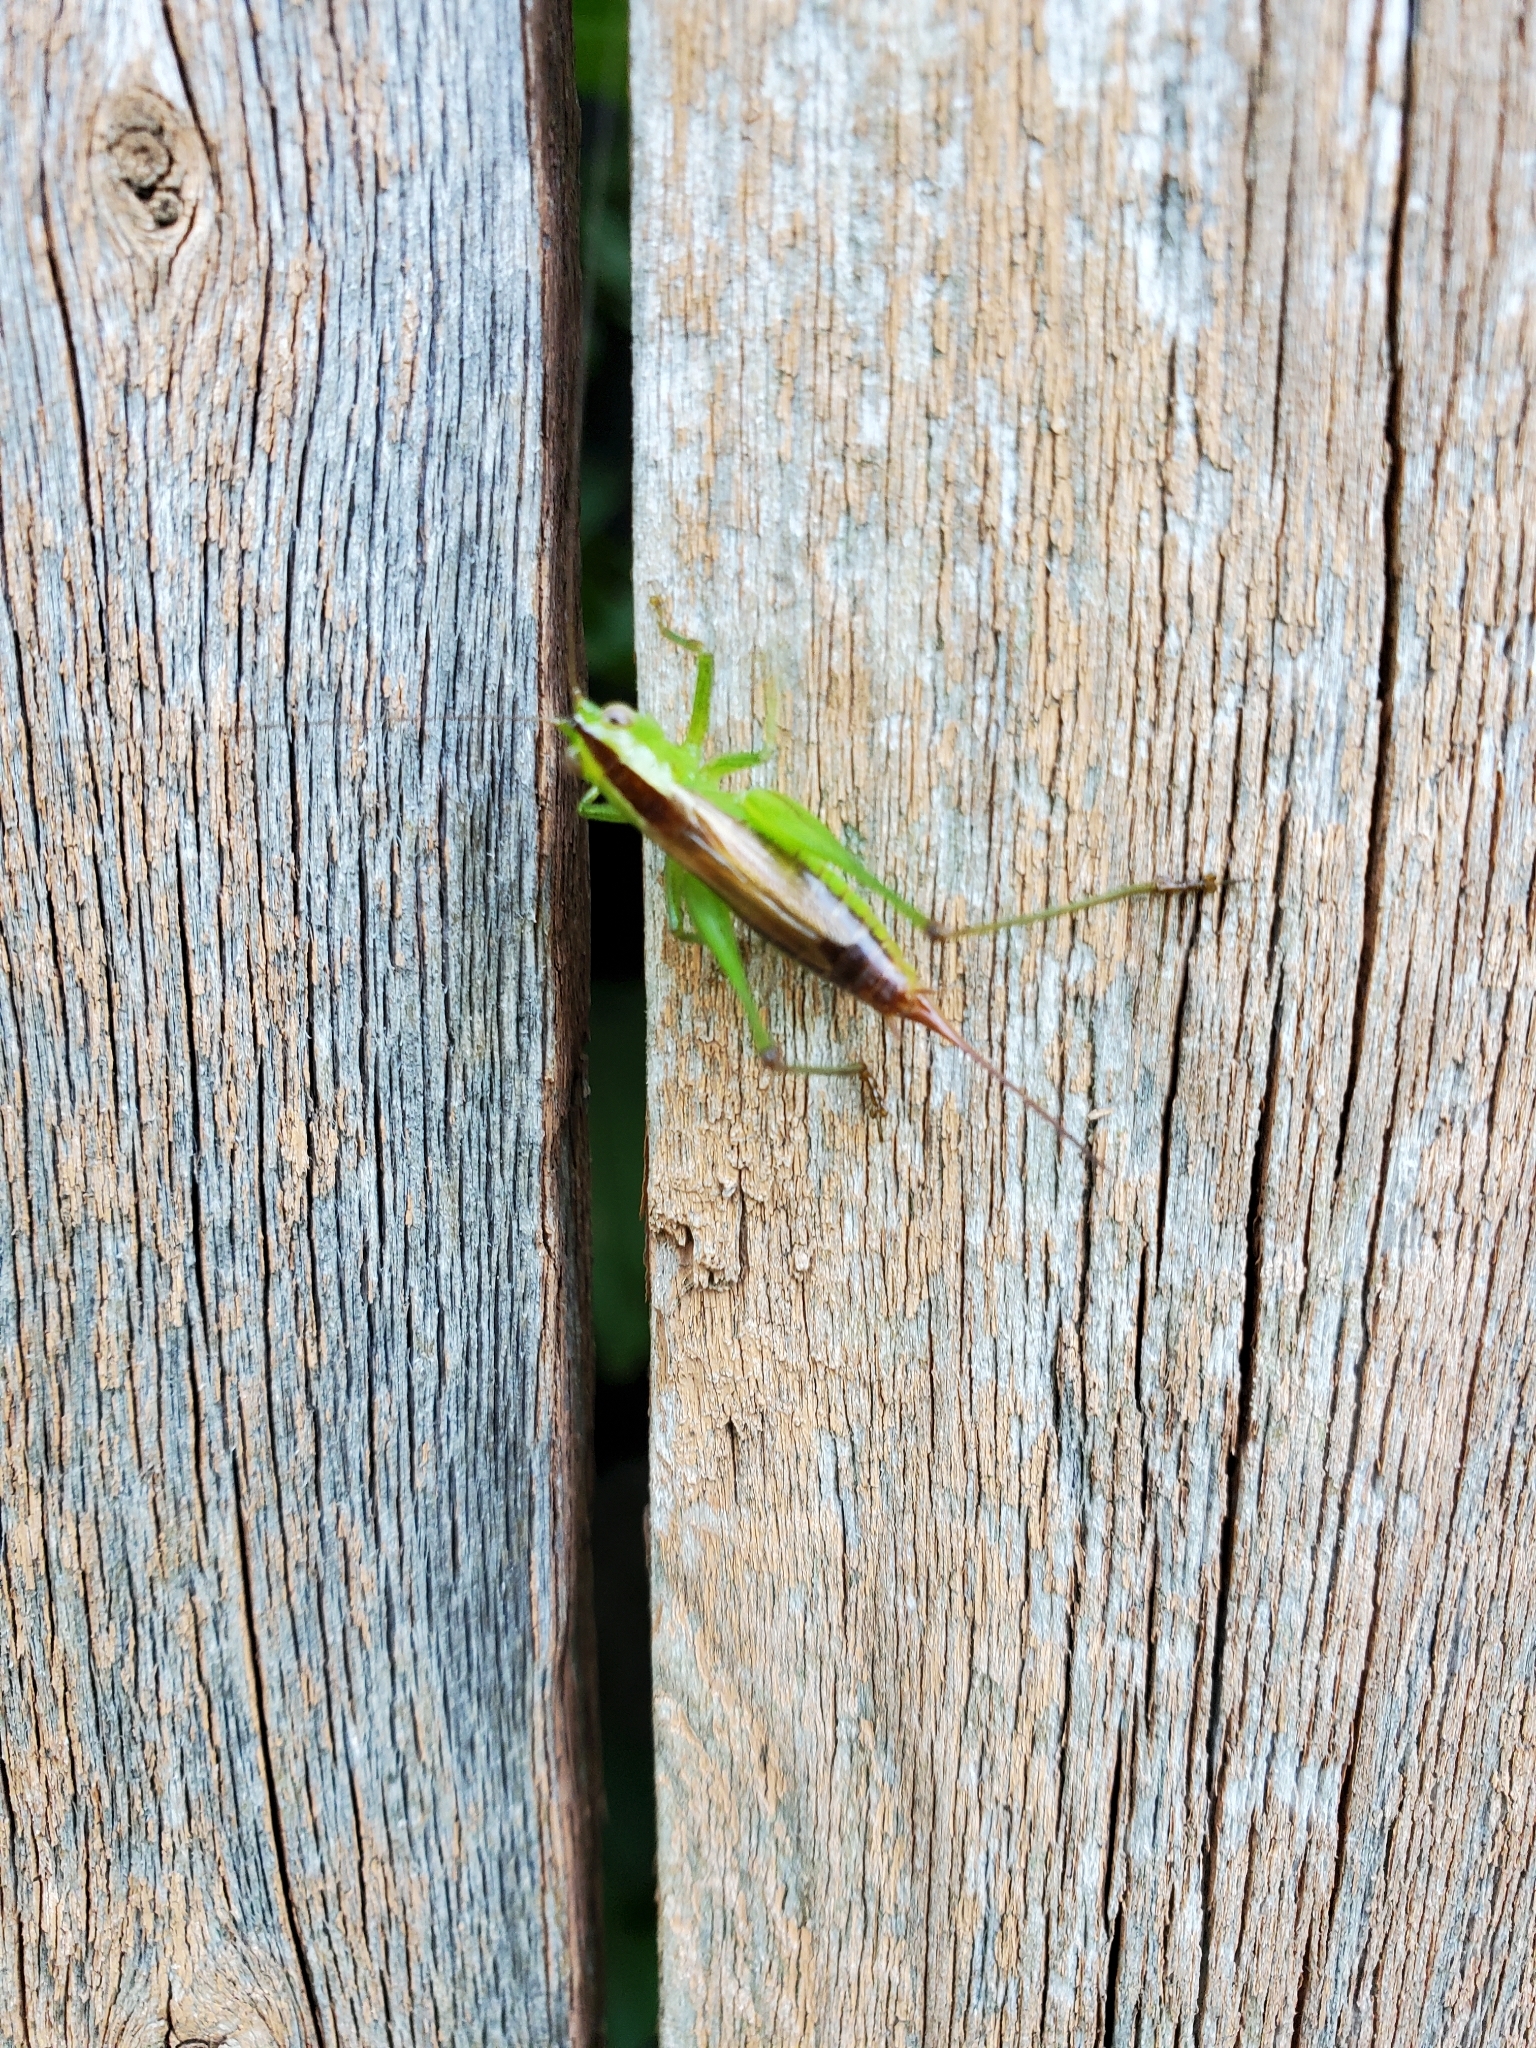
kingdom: Animalia
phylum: Arthropoda
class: Insecta
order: Orthoptera
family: Tettigoniidae
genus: Conocephalus
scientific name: Conocephalus brevipennis
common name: Short-winged meadow katydid
